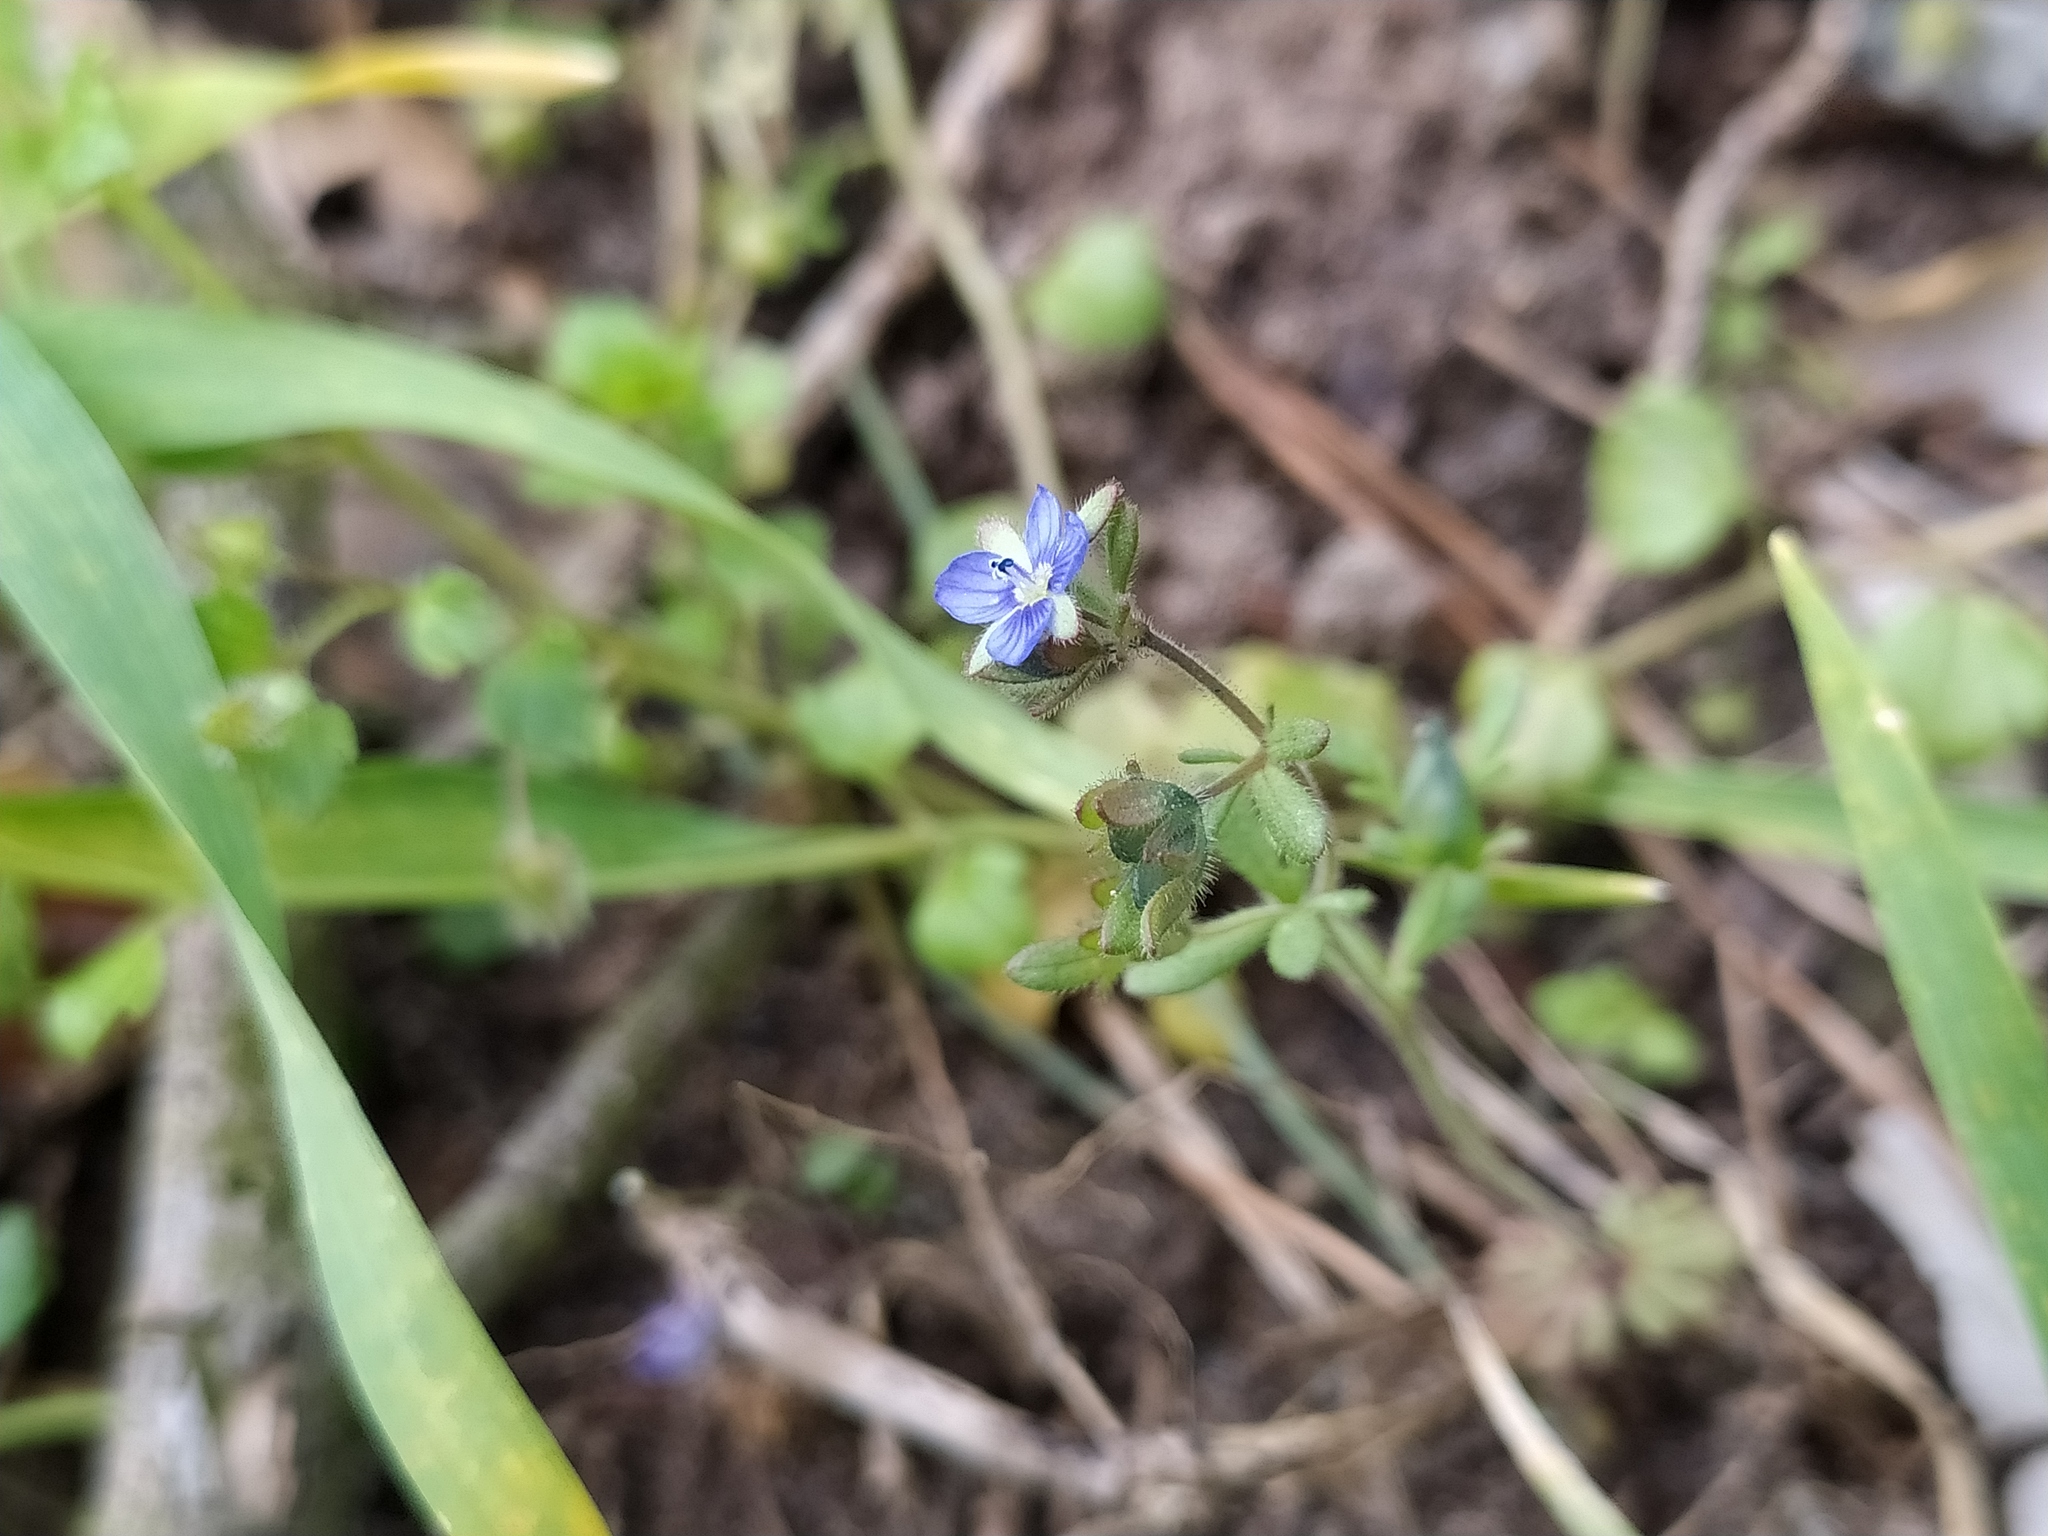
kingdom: Plantae
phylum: Tracheophyta
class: Magnoliopsida
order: Lamiales
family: Plantaginaceae
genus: Veronica
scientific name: Veronica triphyllos
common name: Fingered speedwell
